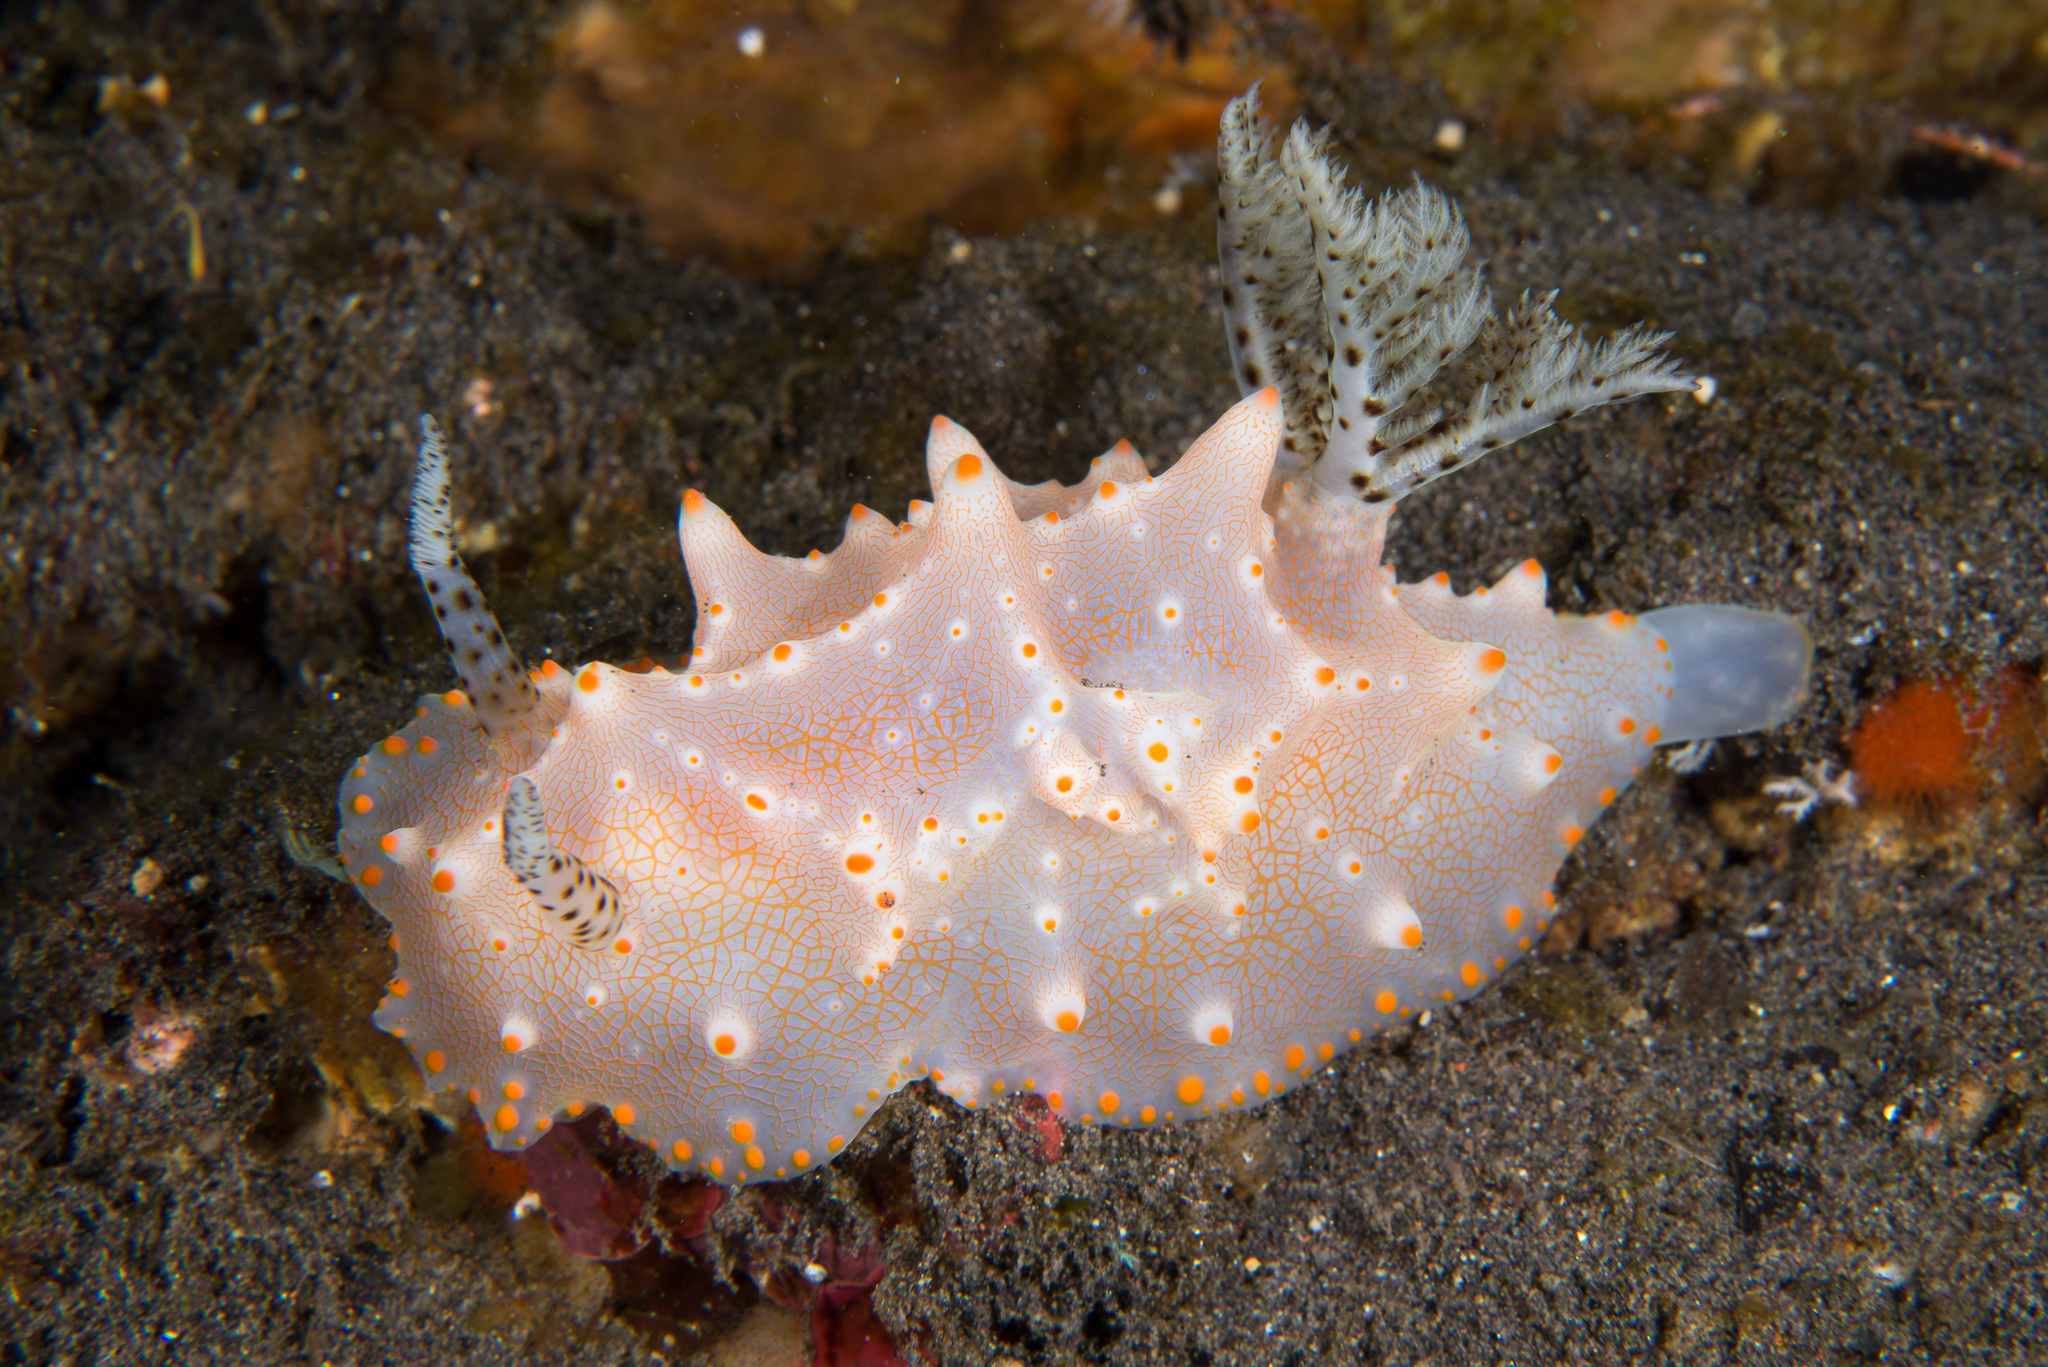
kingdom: Animalia
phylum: Mollusca
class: Gastropoda
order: Nudibranchia
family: Discodorididae
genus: Halgerda
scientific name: Halgerda batangas
